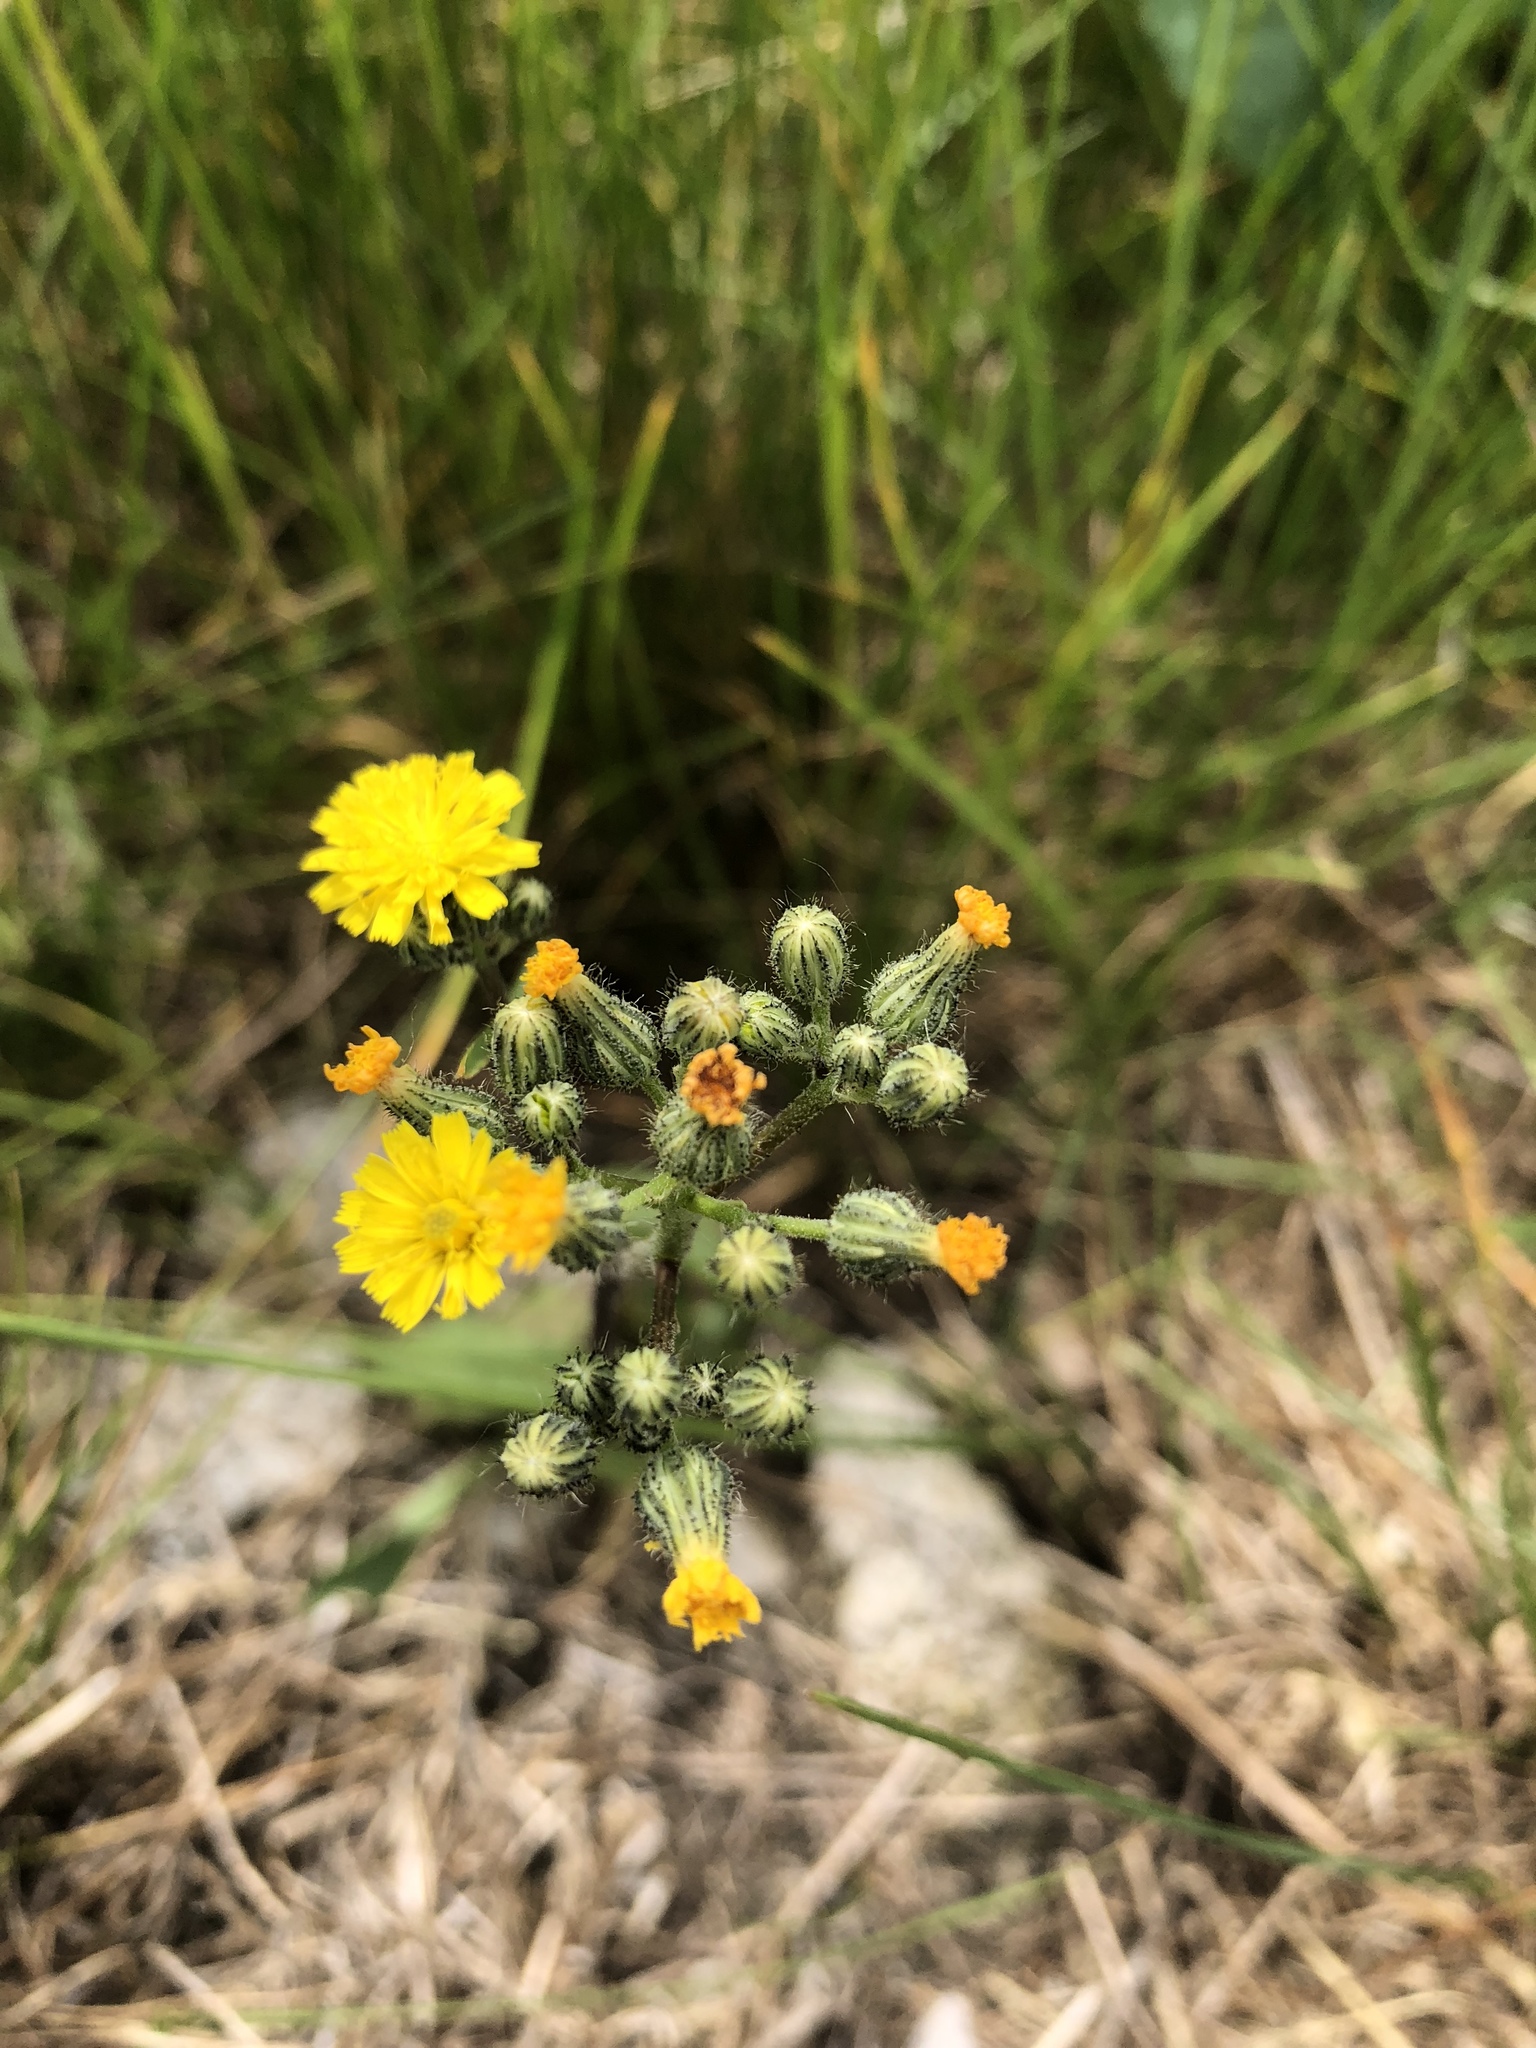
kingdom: Plantae
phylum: Tracheophyta
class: Magnoliopsida
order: Asterales
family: Asteraceae
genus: Pilosella
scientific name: Pilosella piloselloides
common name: Glaucous king-devil
